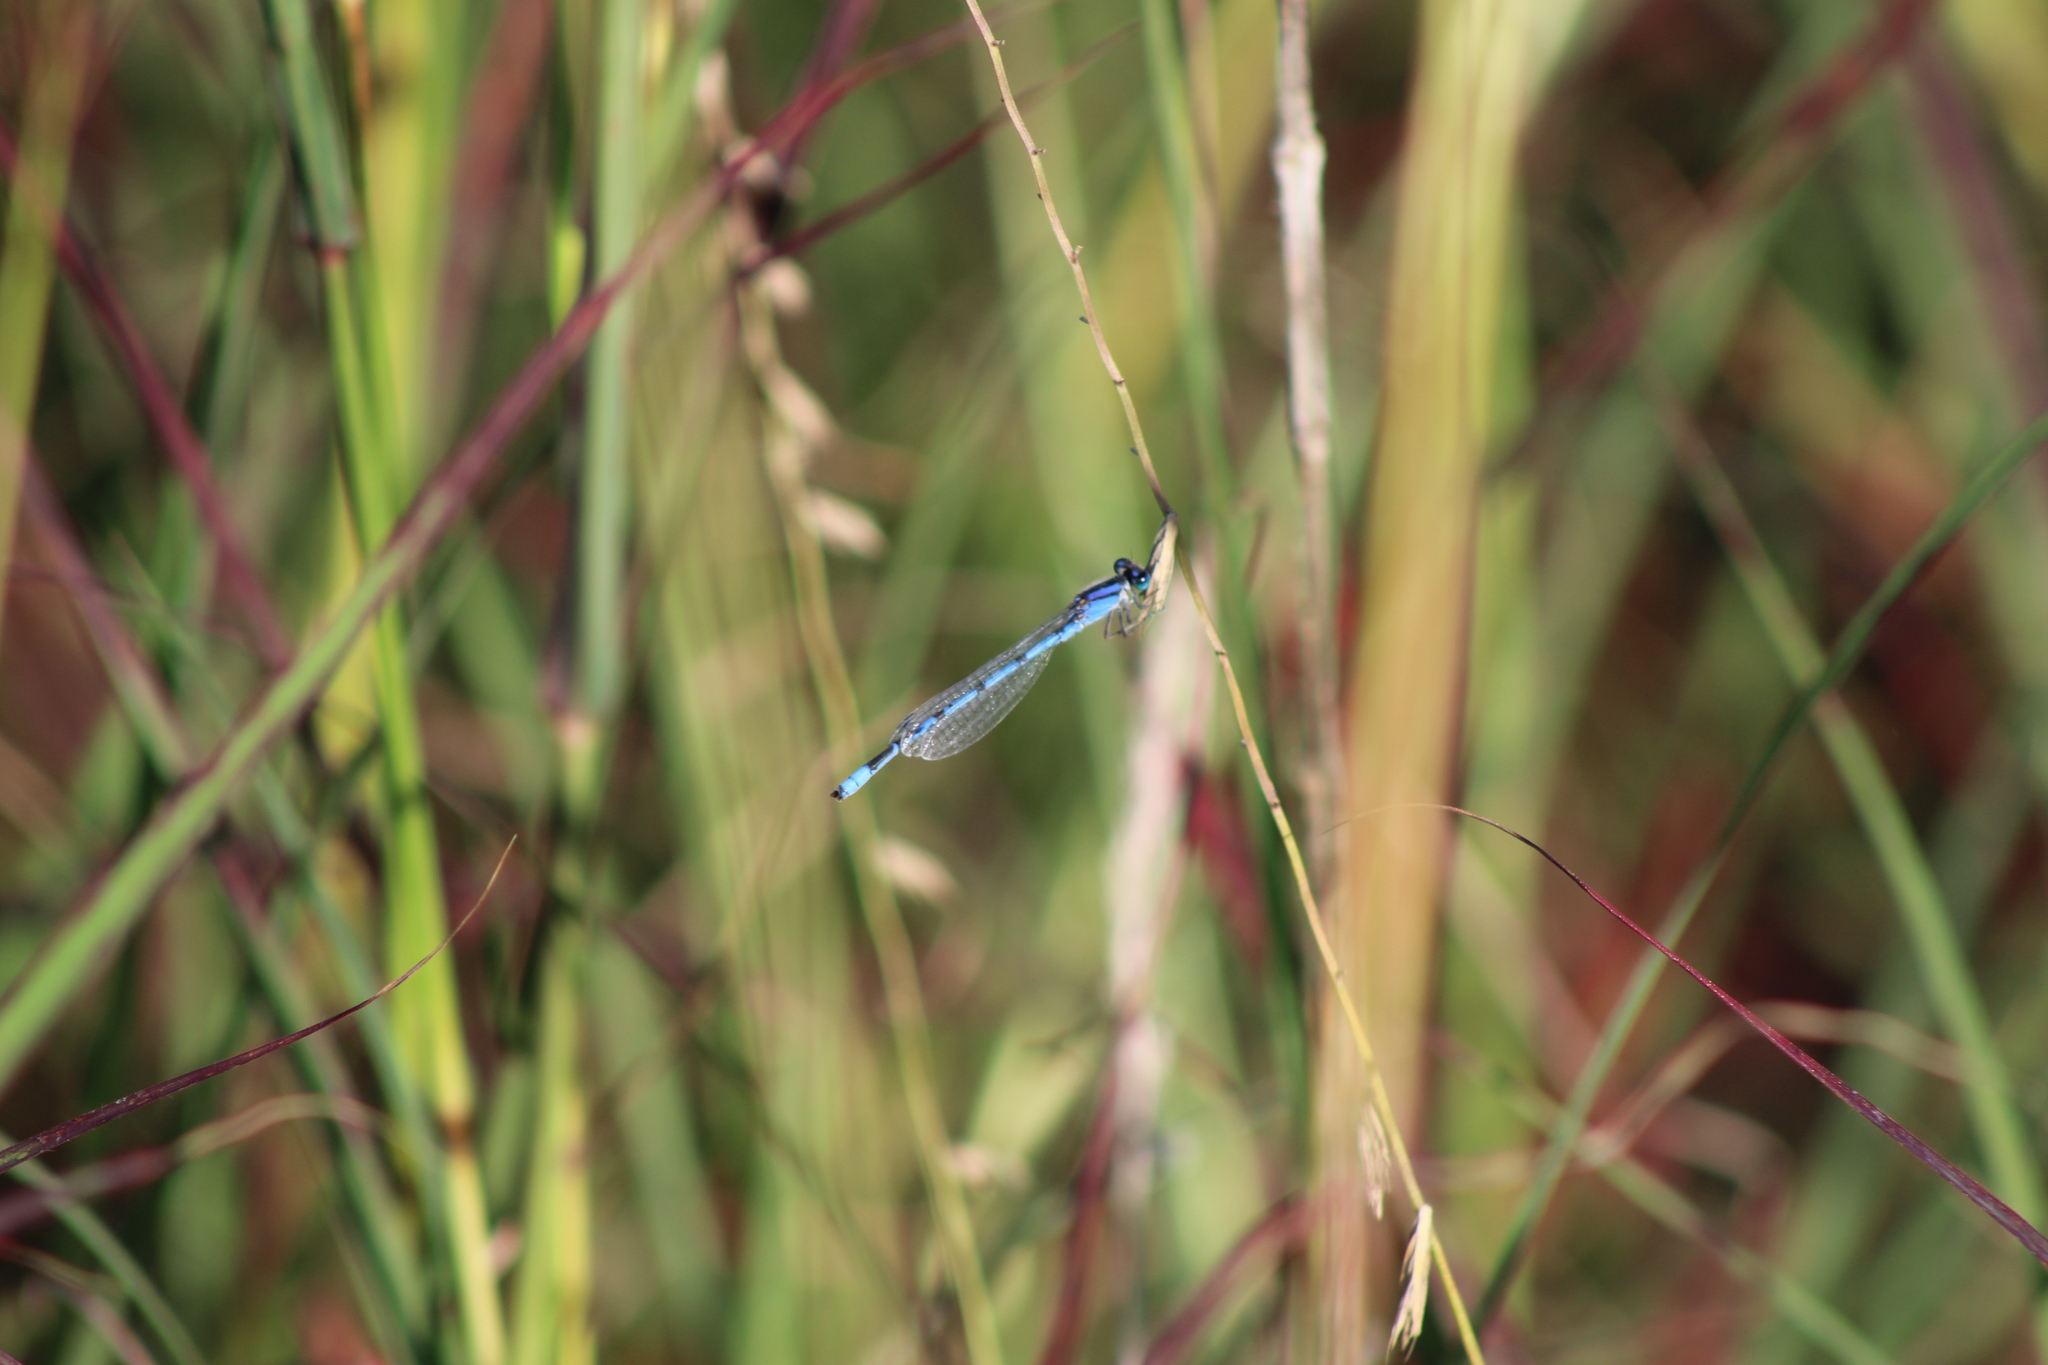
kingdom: Animalia
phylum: Arthropoda
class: Insecta
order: Odonata
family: Coenagrionidae
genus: Enallagma
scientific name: Enallagma civile
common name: Damselfly
